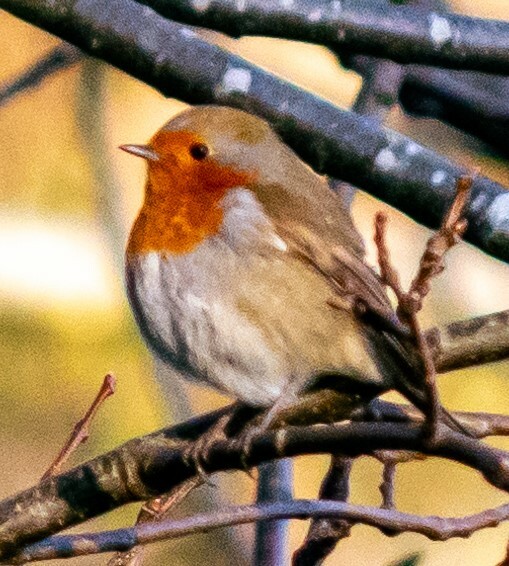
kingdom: Animalia
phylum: Chordata
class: Aves
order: Passeriformes
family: Muscicapidae
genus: Erithacus
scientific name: Erithacus rubecula
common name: European robin
